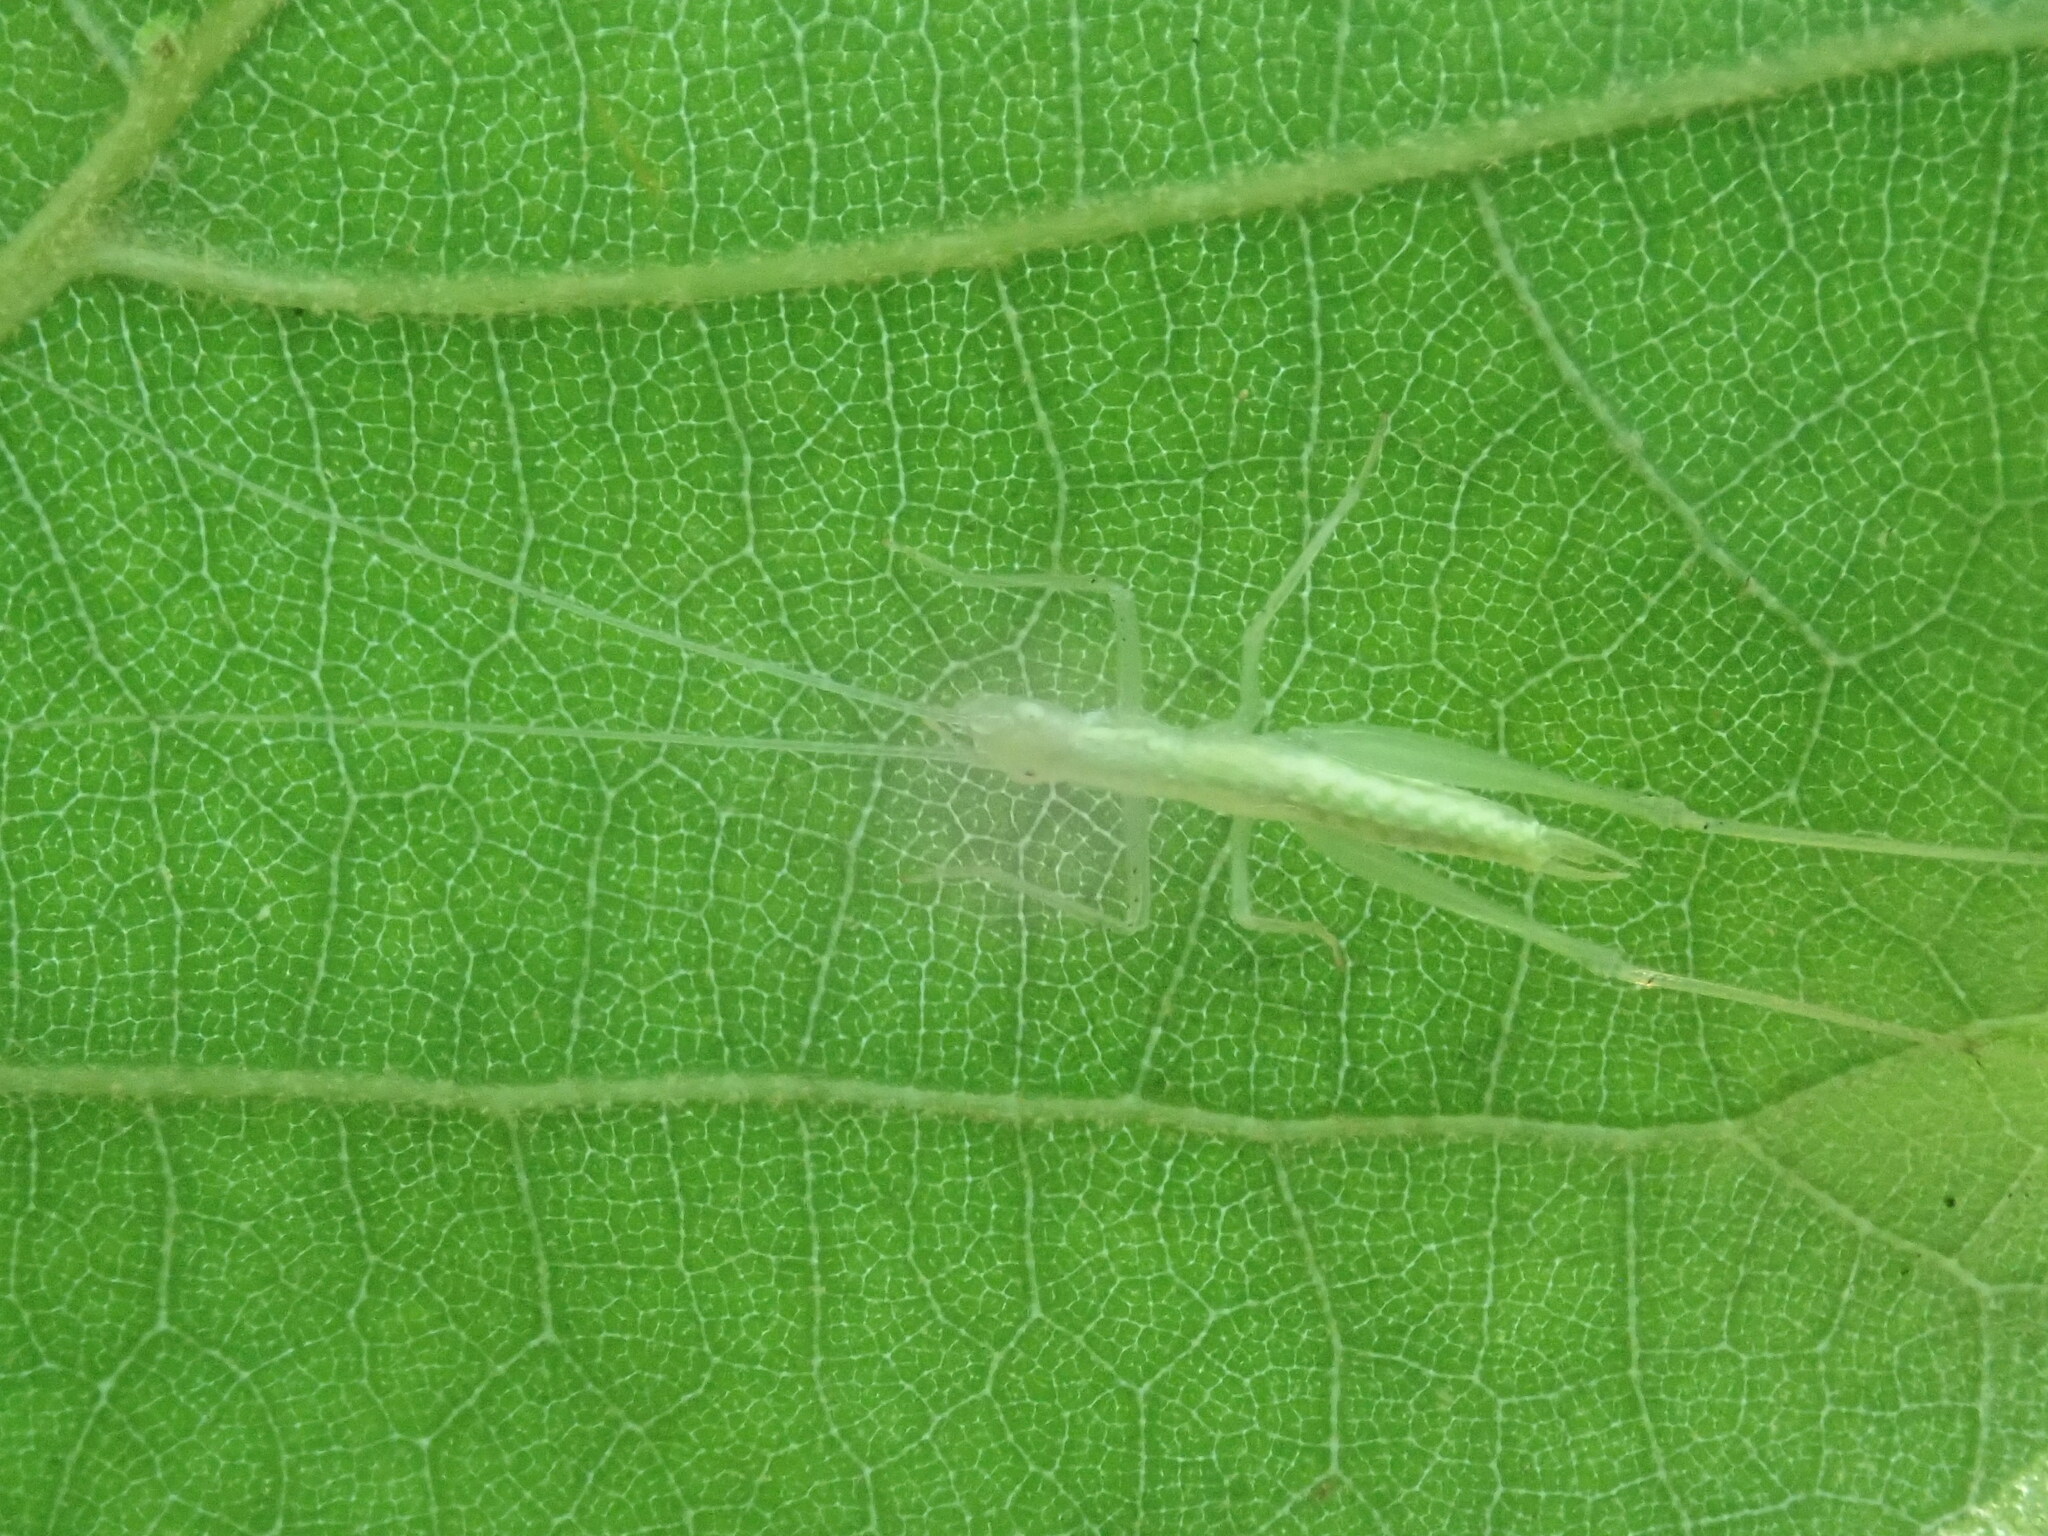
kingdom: Animalia
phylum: Arthropoda
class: Insecta
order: Orthoptera
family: Gryllidae
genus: Oecanthus
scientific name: Oecanthus
